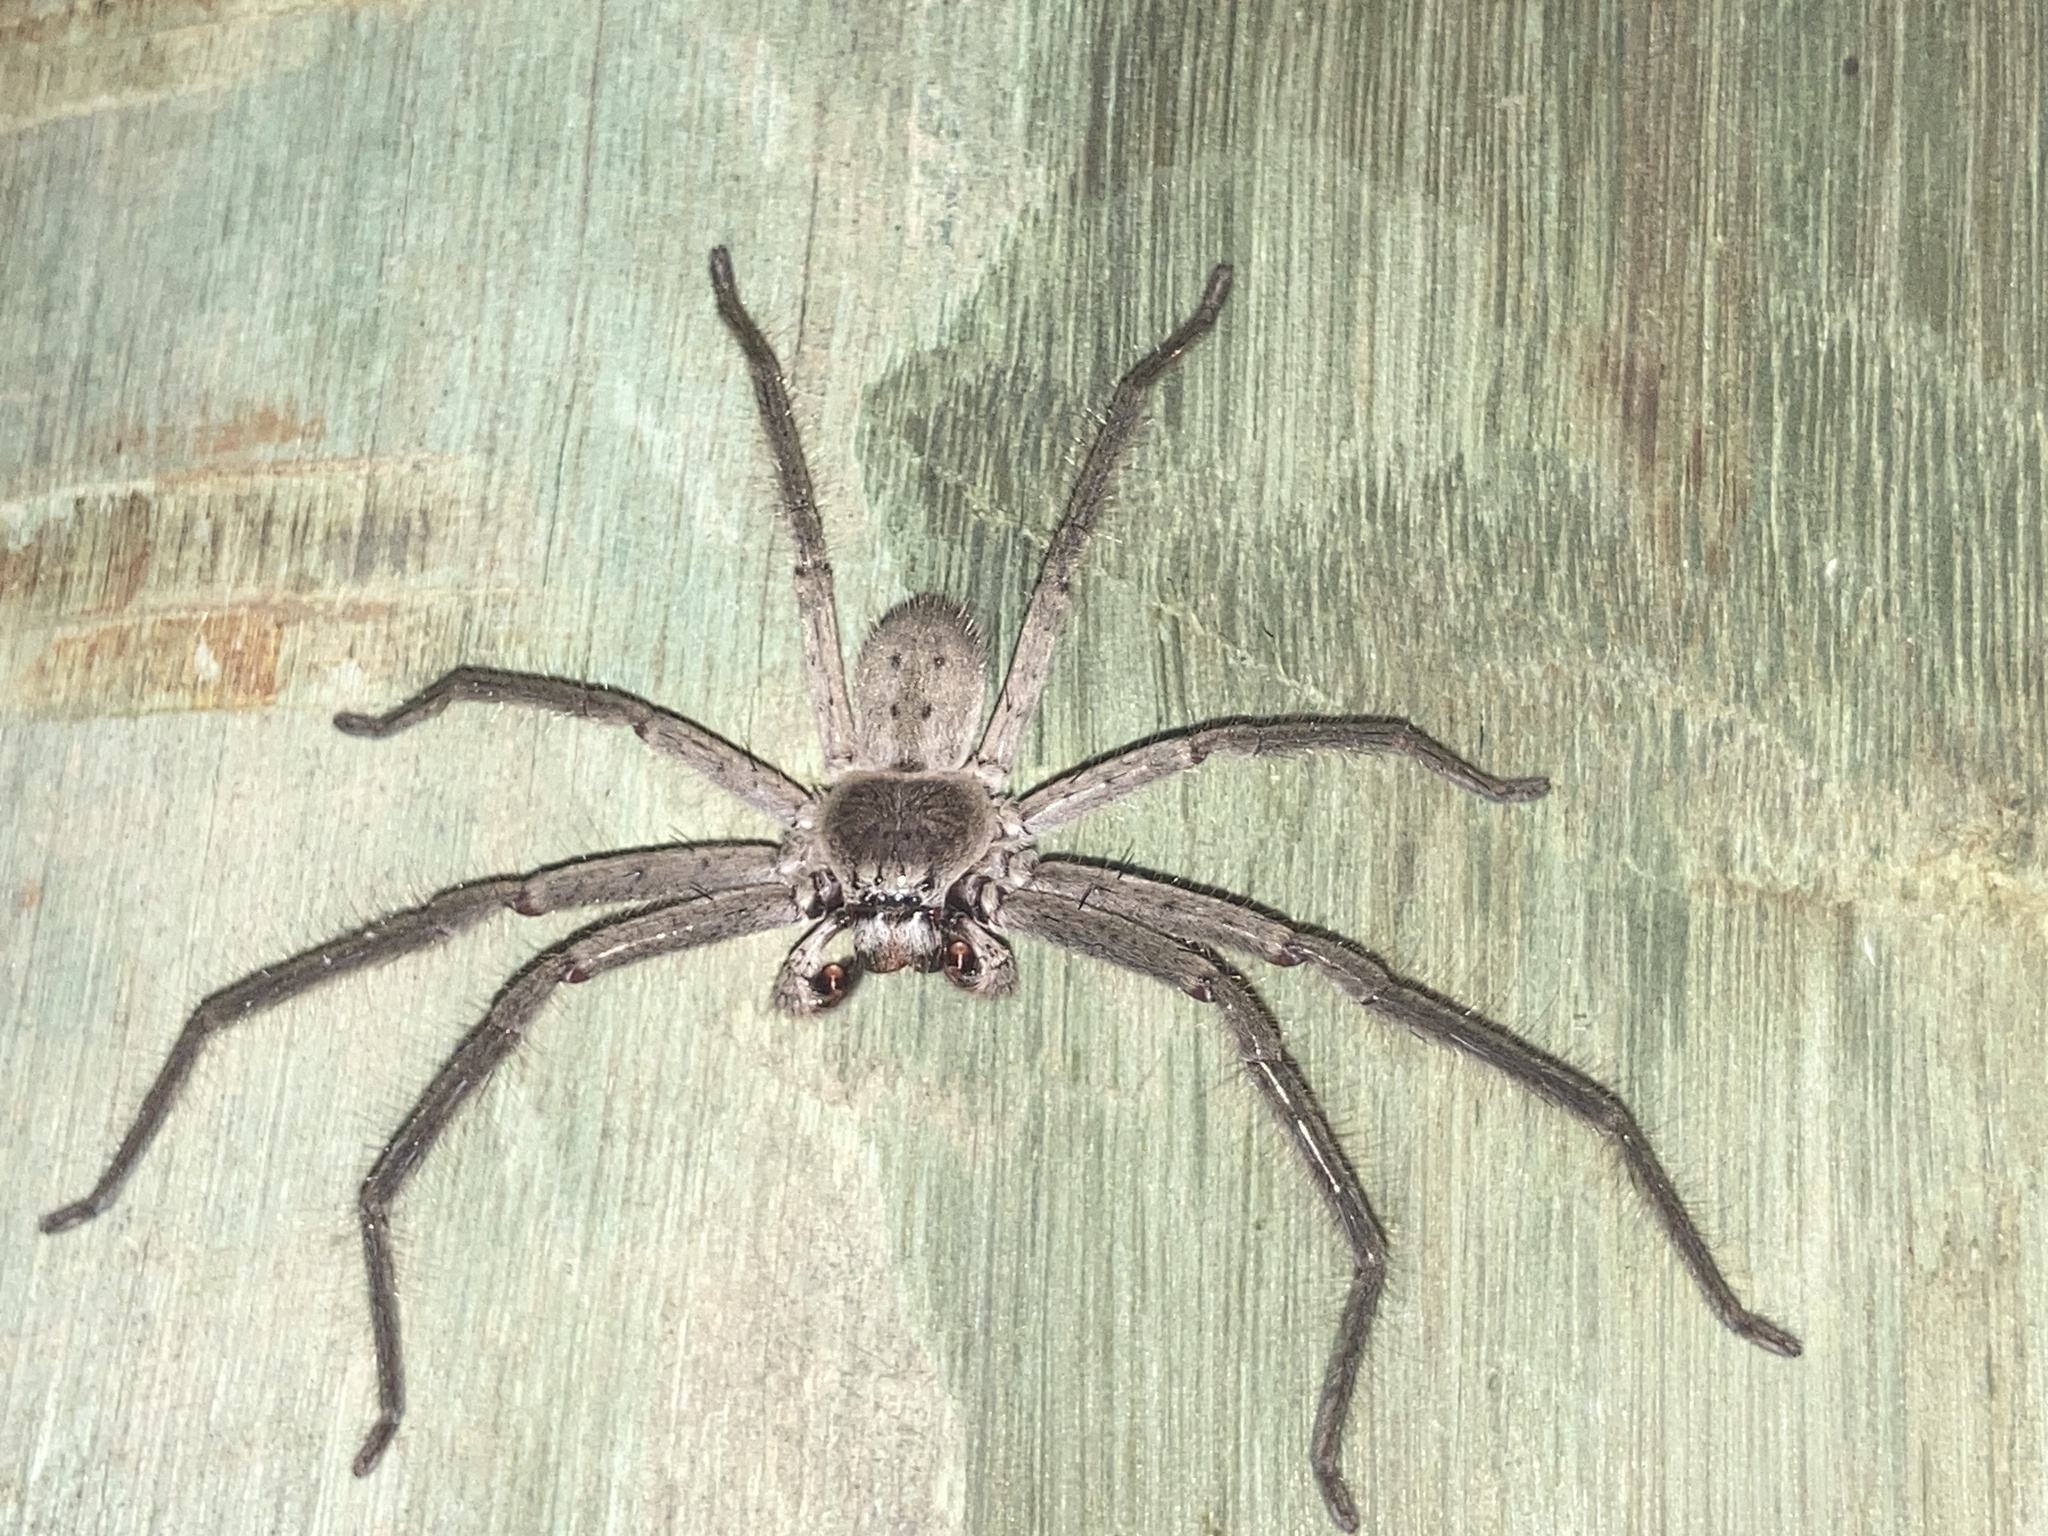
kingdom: Animalia
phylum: Arthropoda
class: Arachnida
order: Araneae
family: Sparassidae
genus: Isopeda
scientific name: Isopeda villosa
